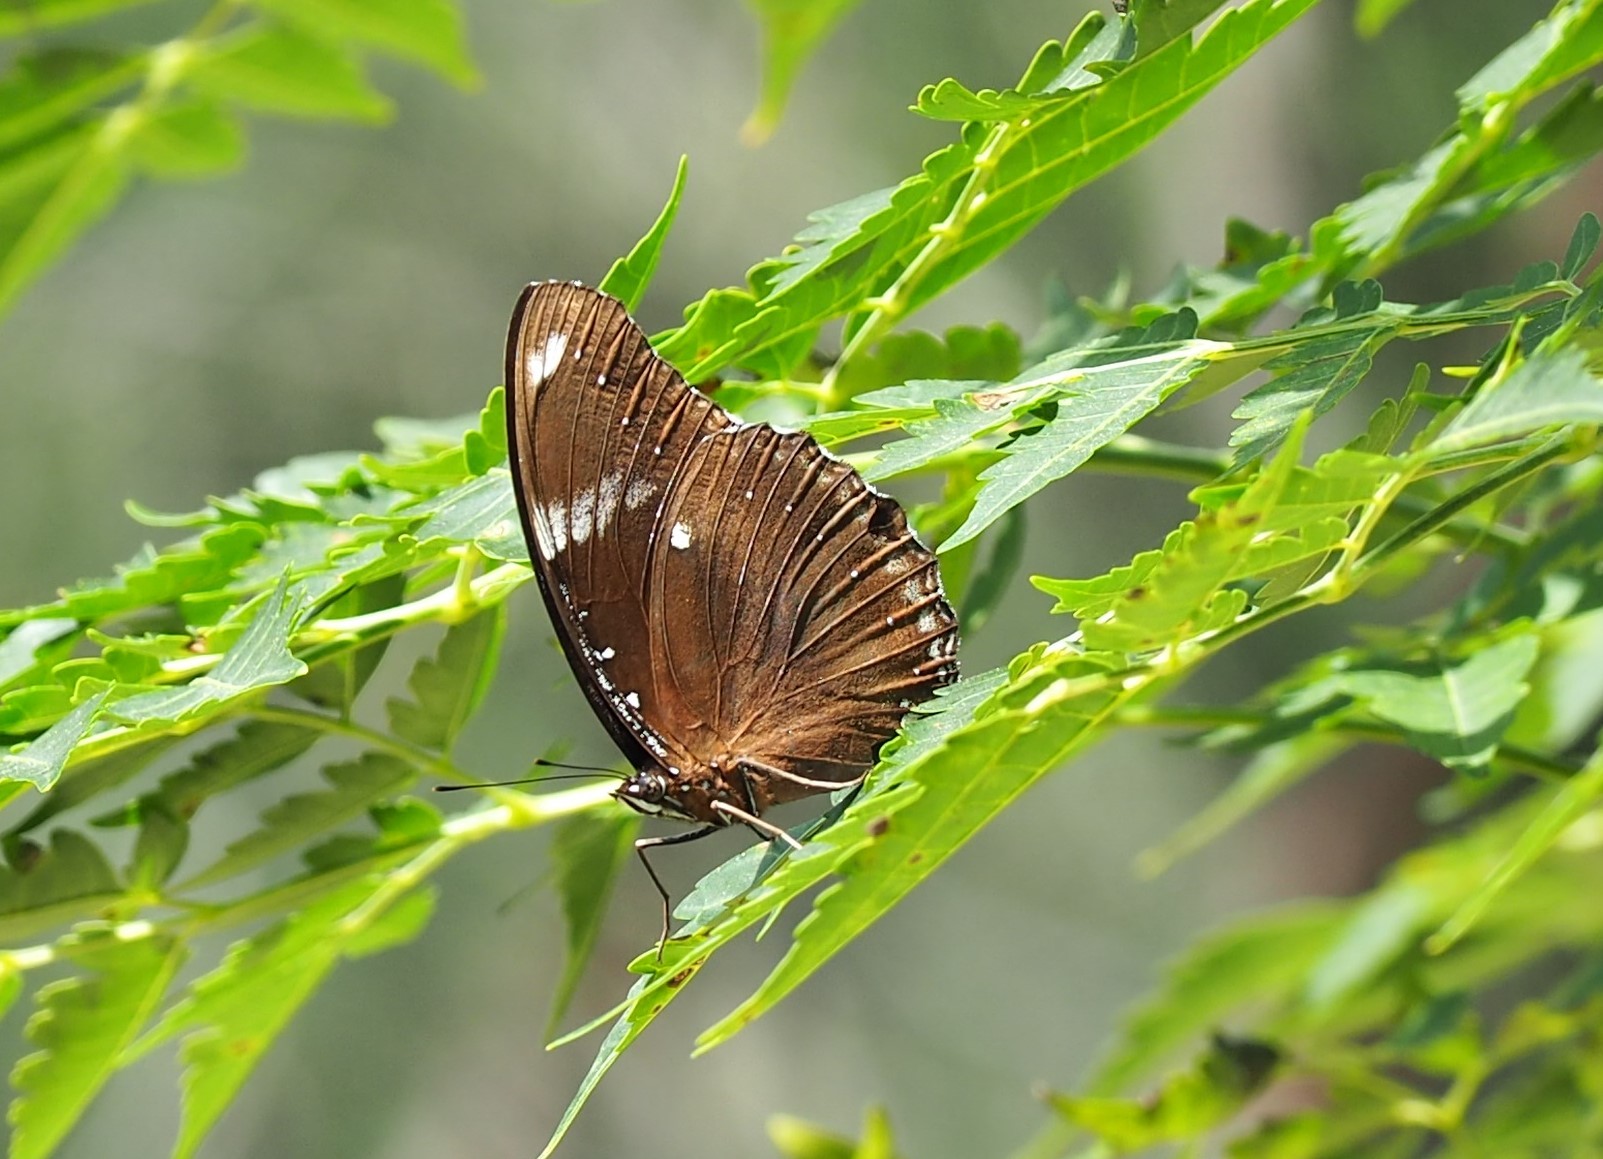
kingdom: Animalia
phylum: Arthropoda
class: Insecta
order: Lepidoptera
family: Nymphalidae
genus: Hypolimnas
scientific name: Hypolimnas bolina
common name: Great eggfly
